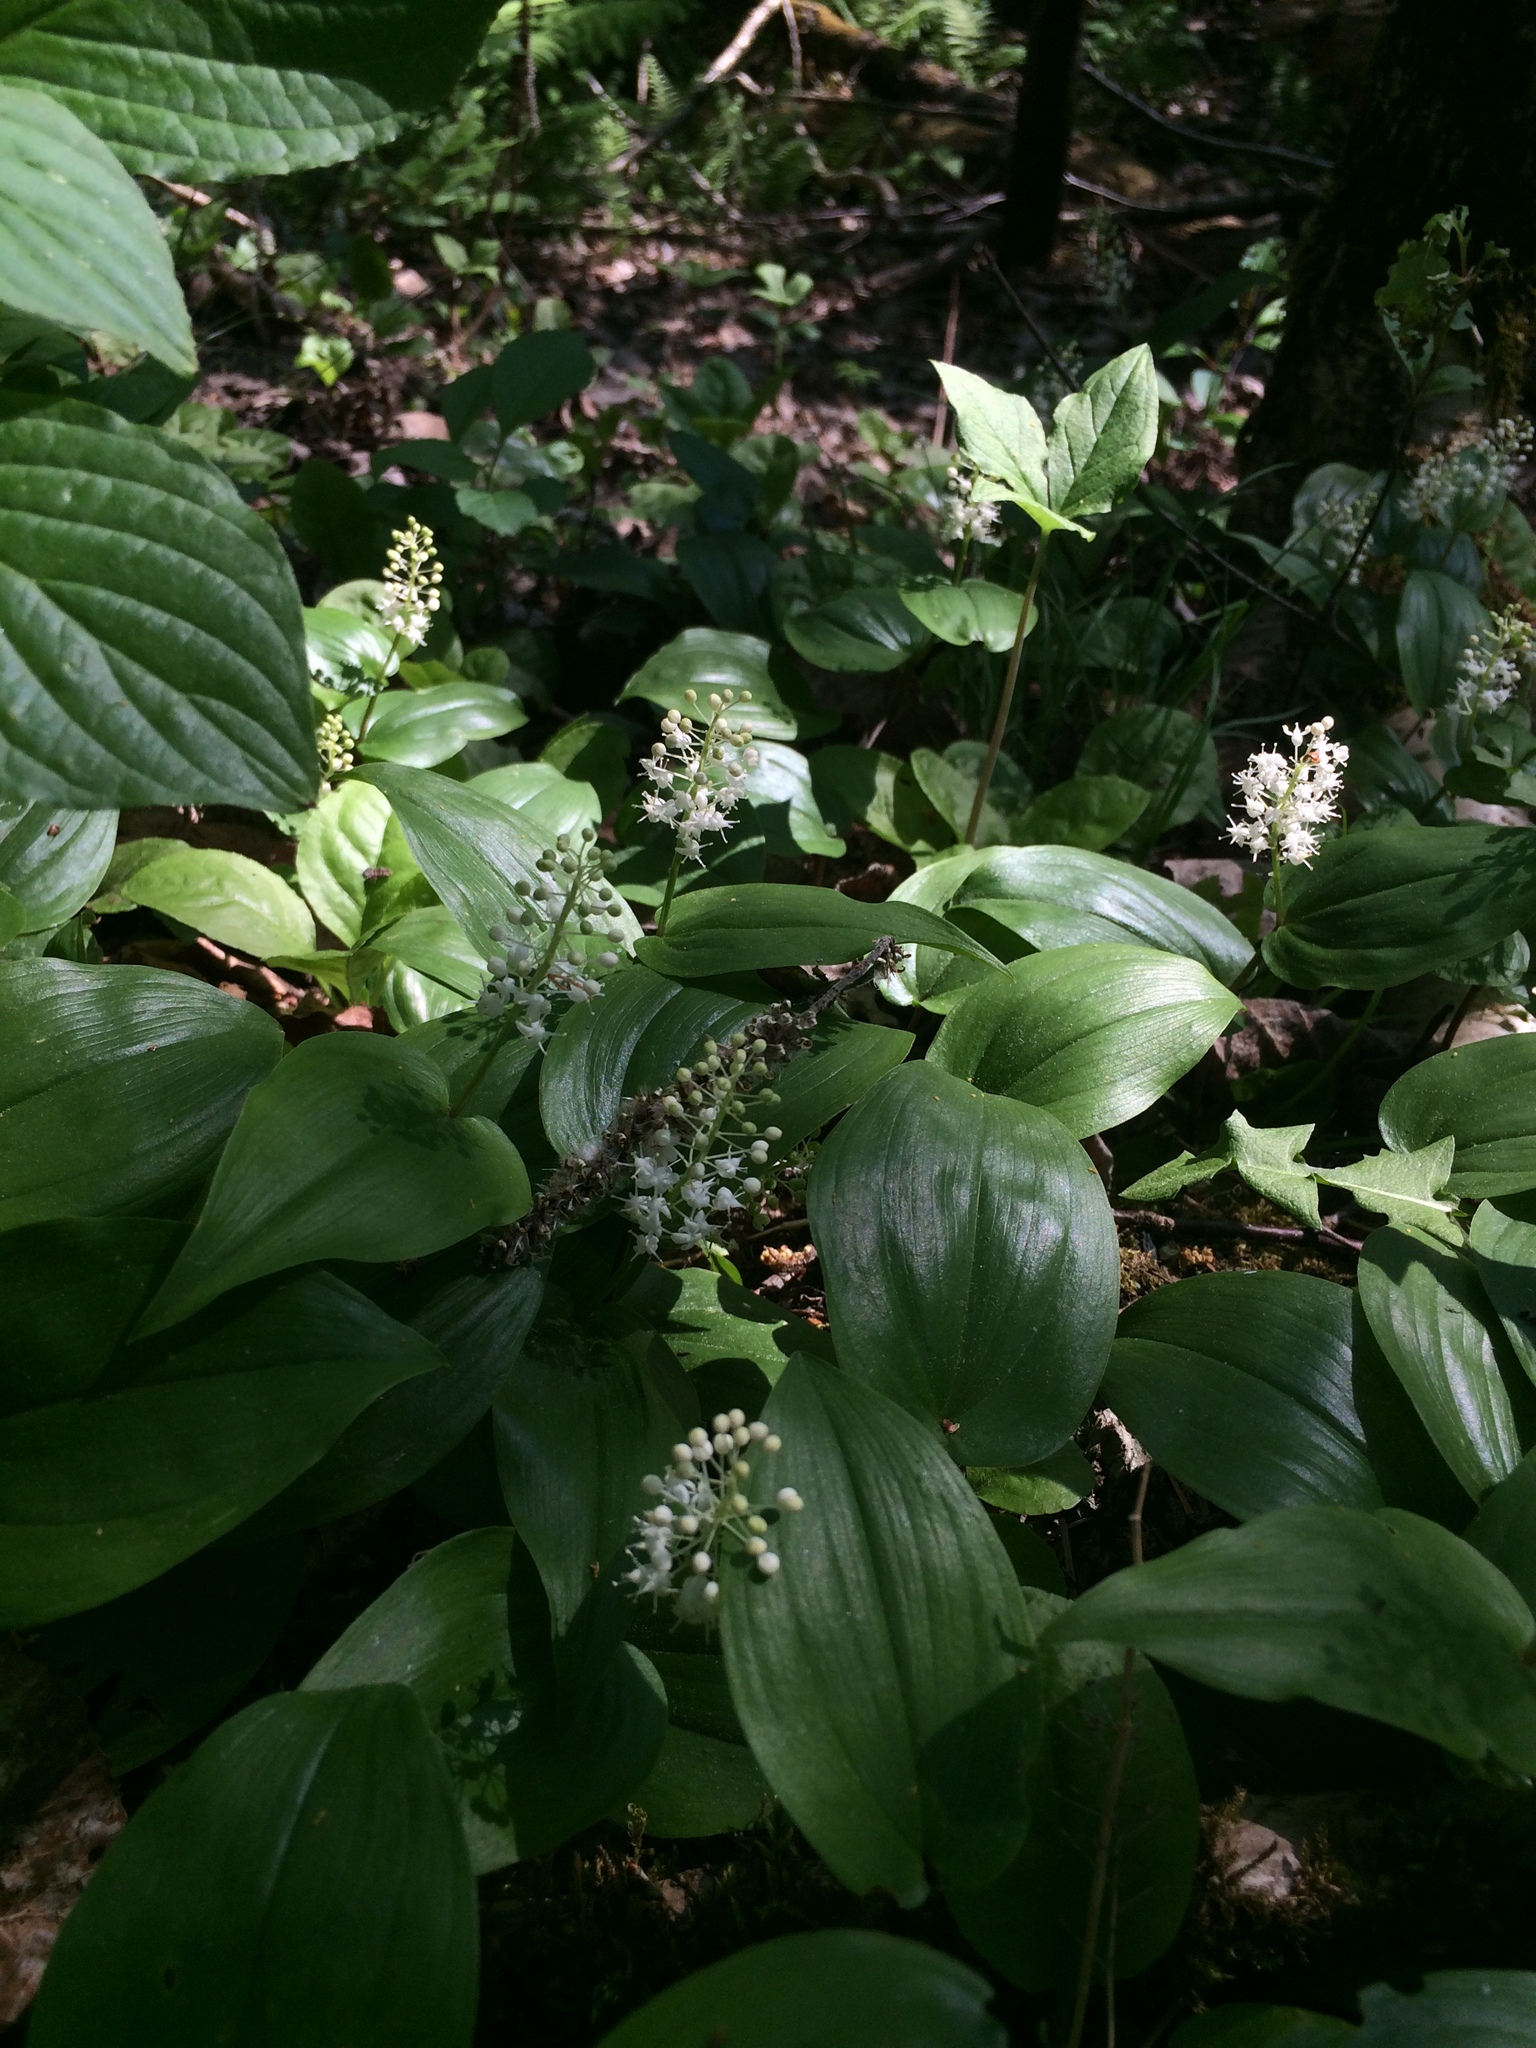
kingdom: Plantae
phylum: Tracheophyta
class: Liliopsida
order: Asparagales
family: Asparagaceae
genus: Maianthemum
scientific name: Maianthemum canadense
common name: False lily-of-the-valley
